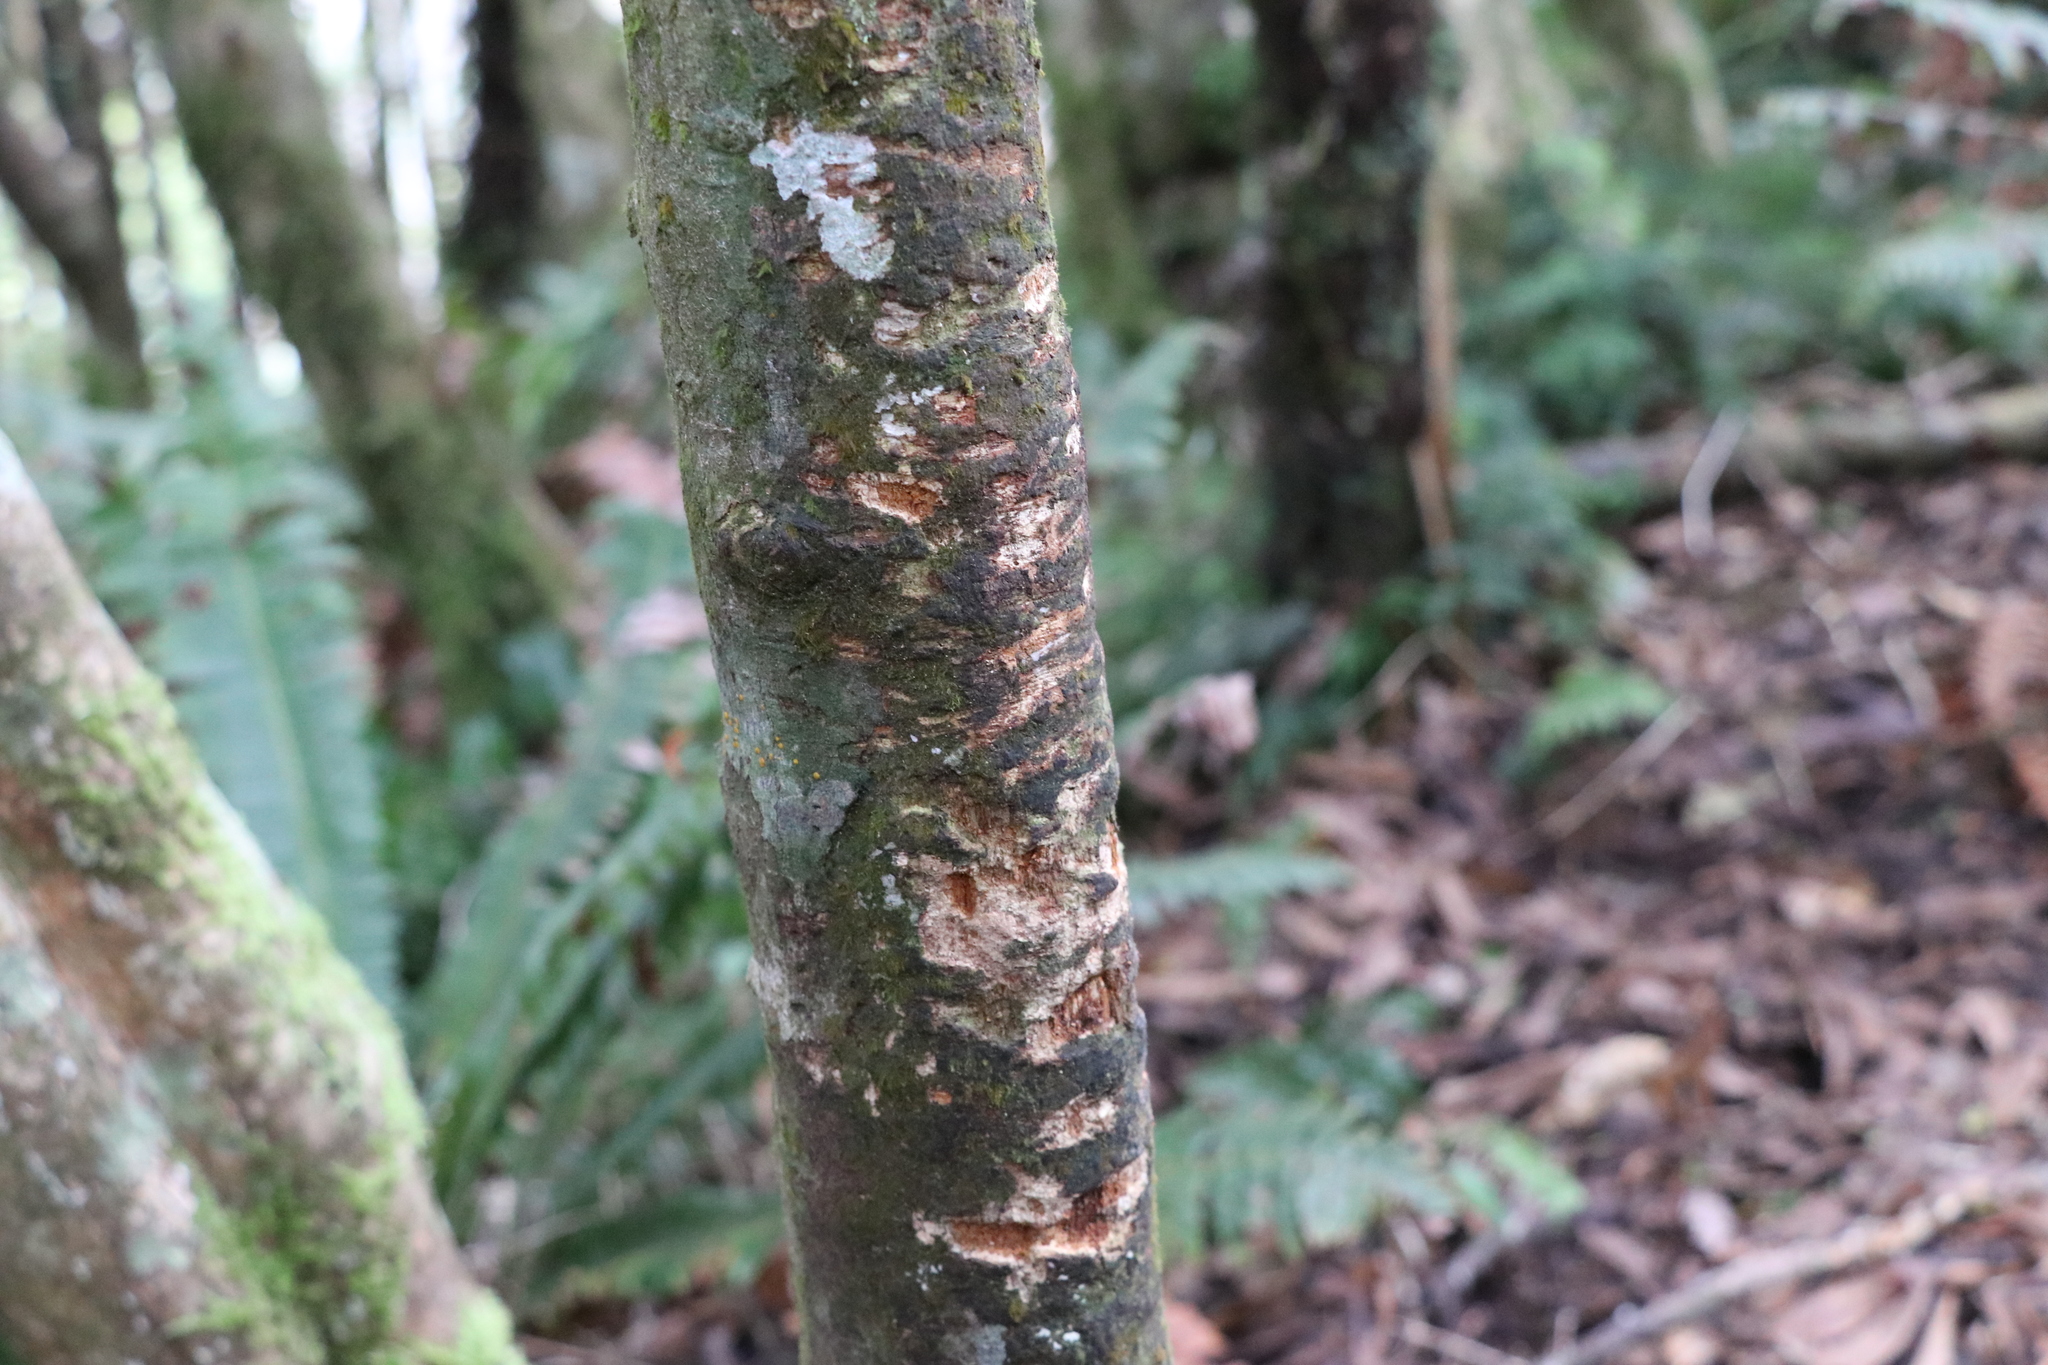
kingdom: Animalia
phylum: Chordata
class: Mammalia
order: Diprotodontia
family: Phalangeridae
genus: Trichosurus
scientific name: Trichosurus vulpecula
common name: Common brushtail
